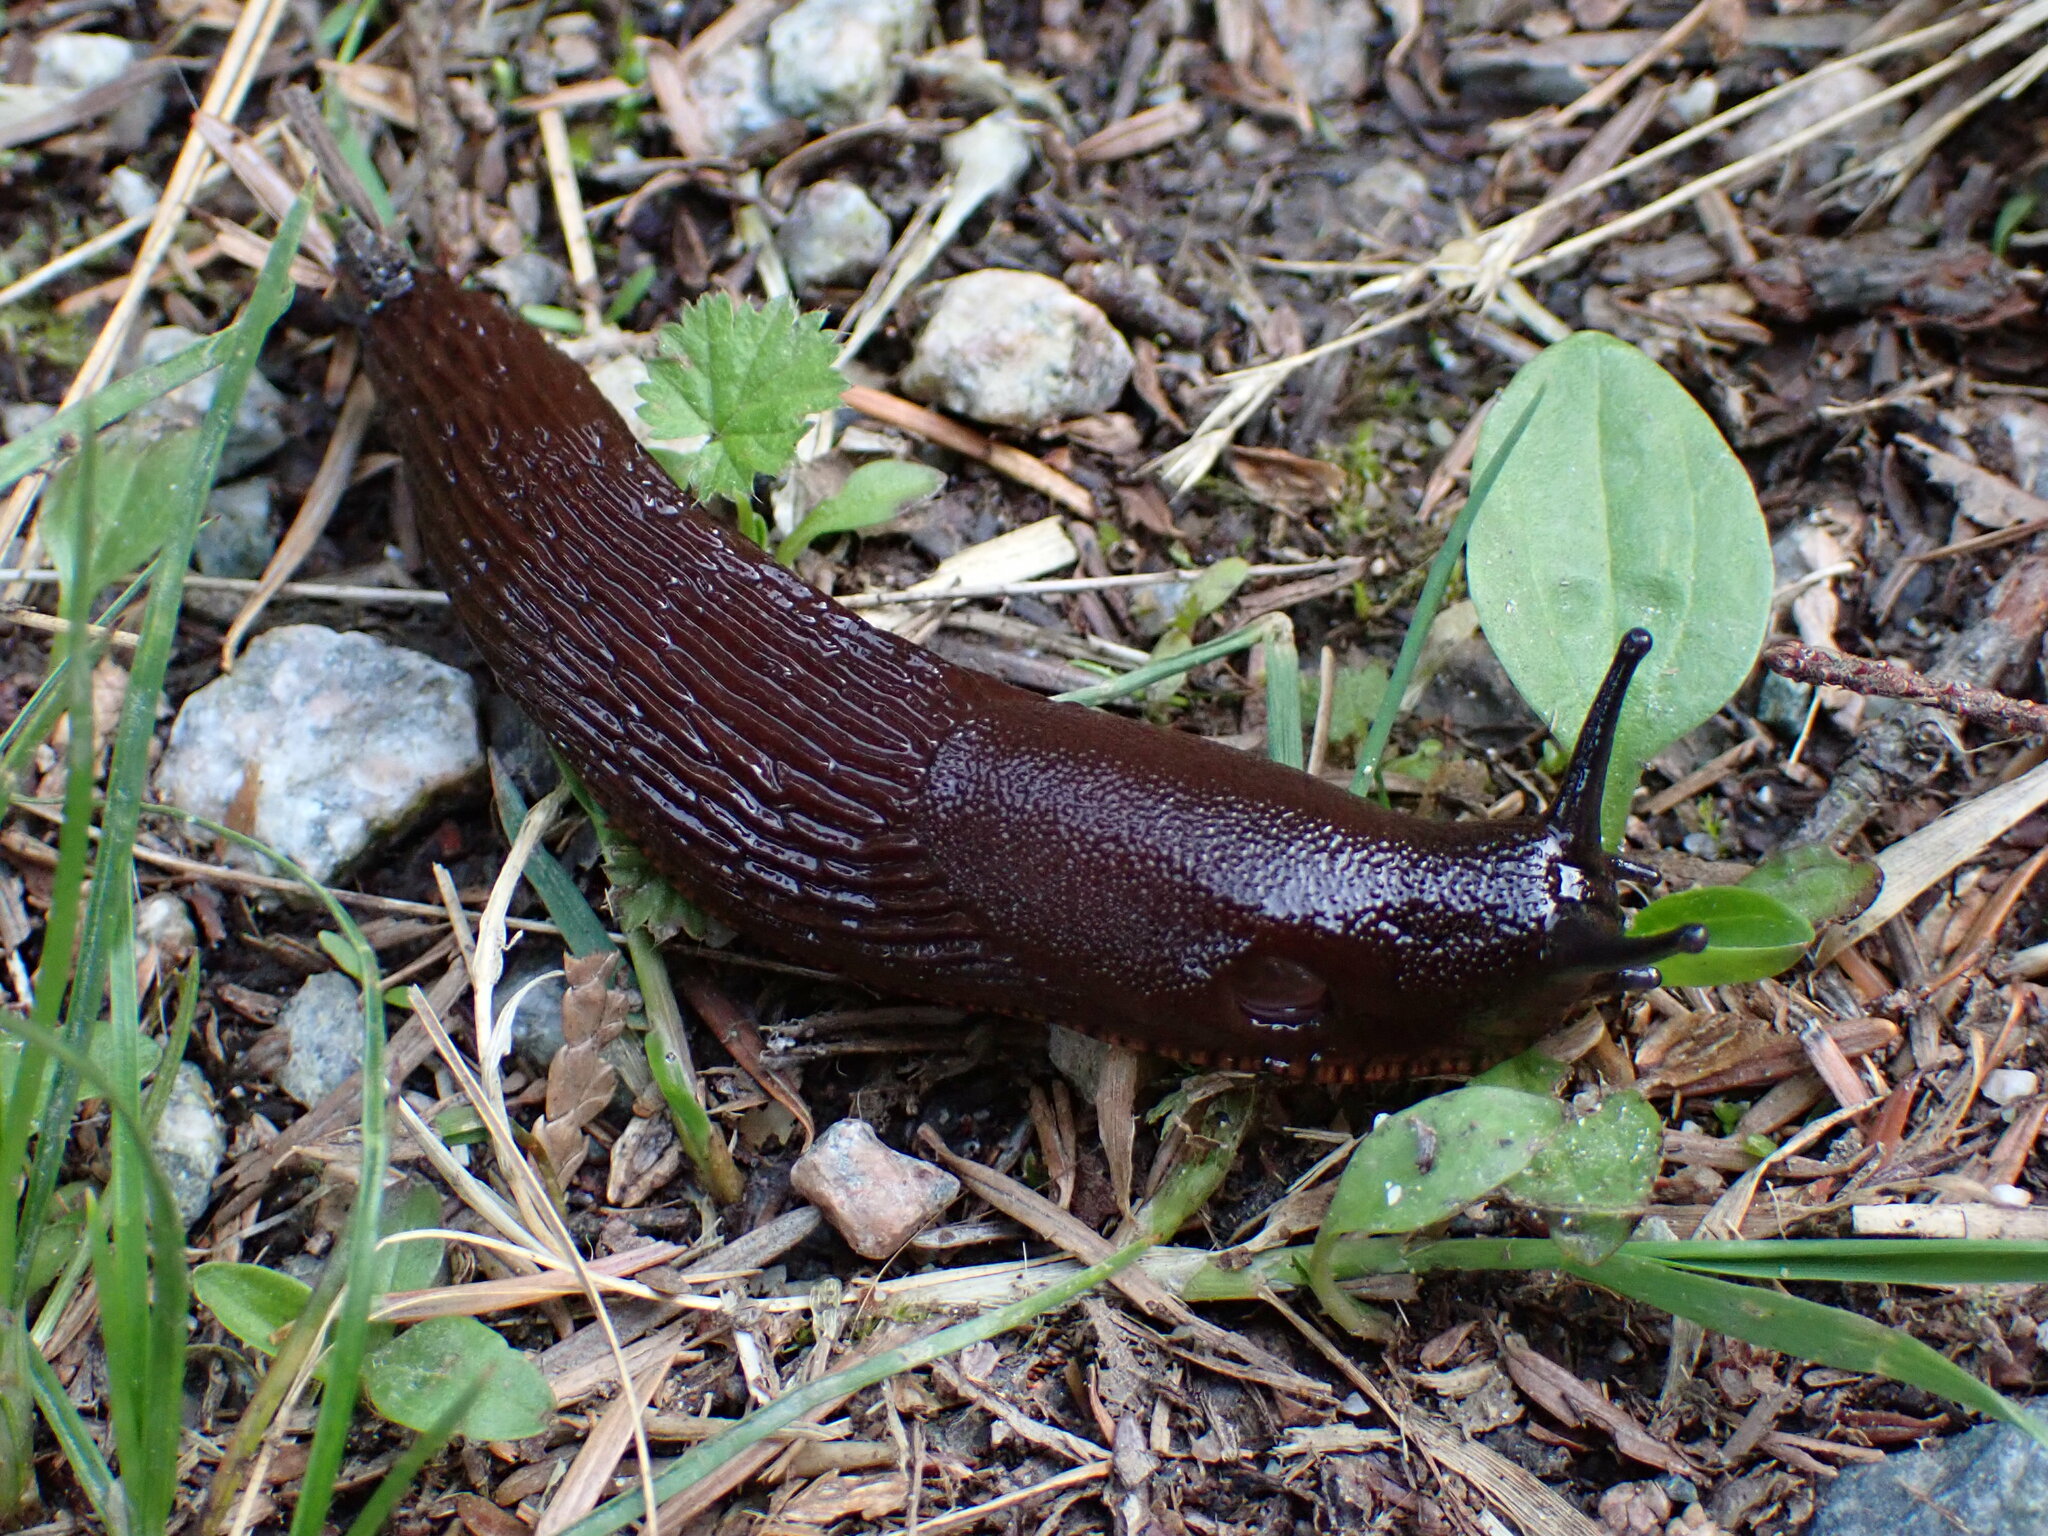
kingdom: Animalia
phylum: Mollusca
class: Gastropoda
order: Stylommatophora
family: Arionidae
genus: Arion
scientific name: Arion
